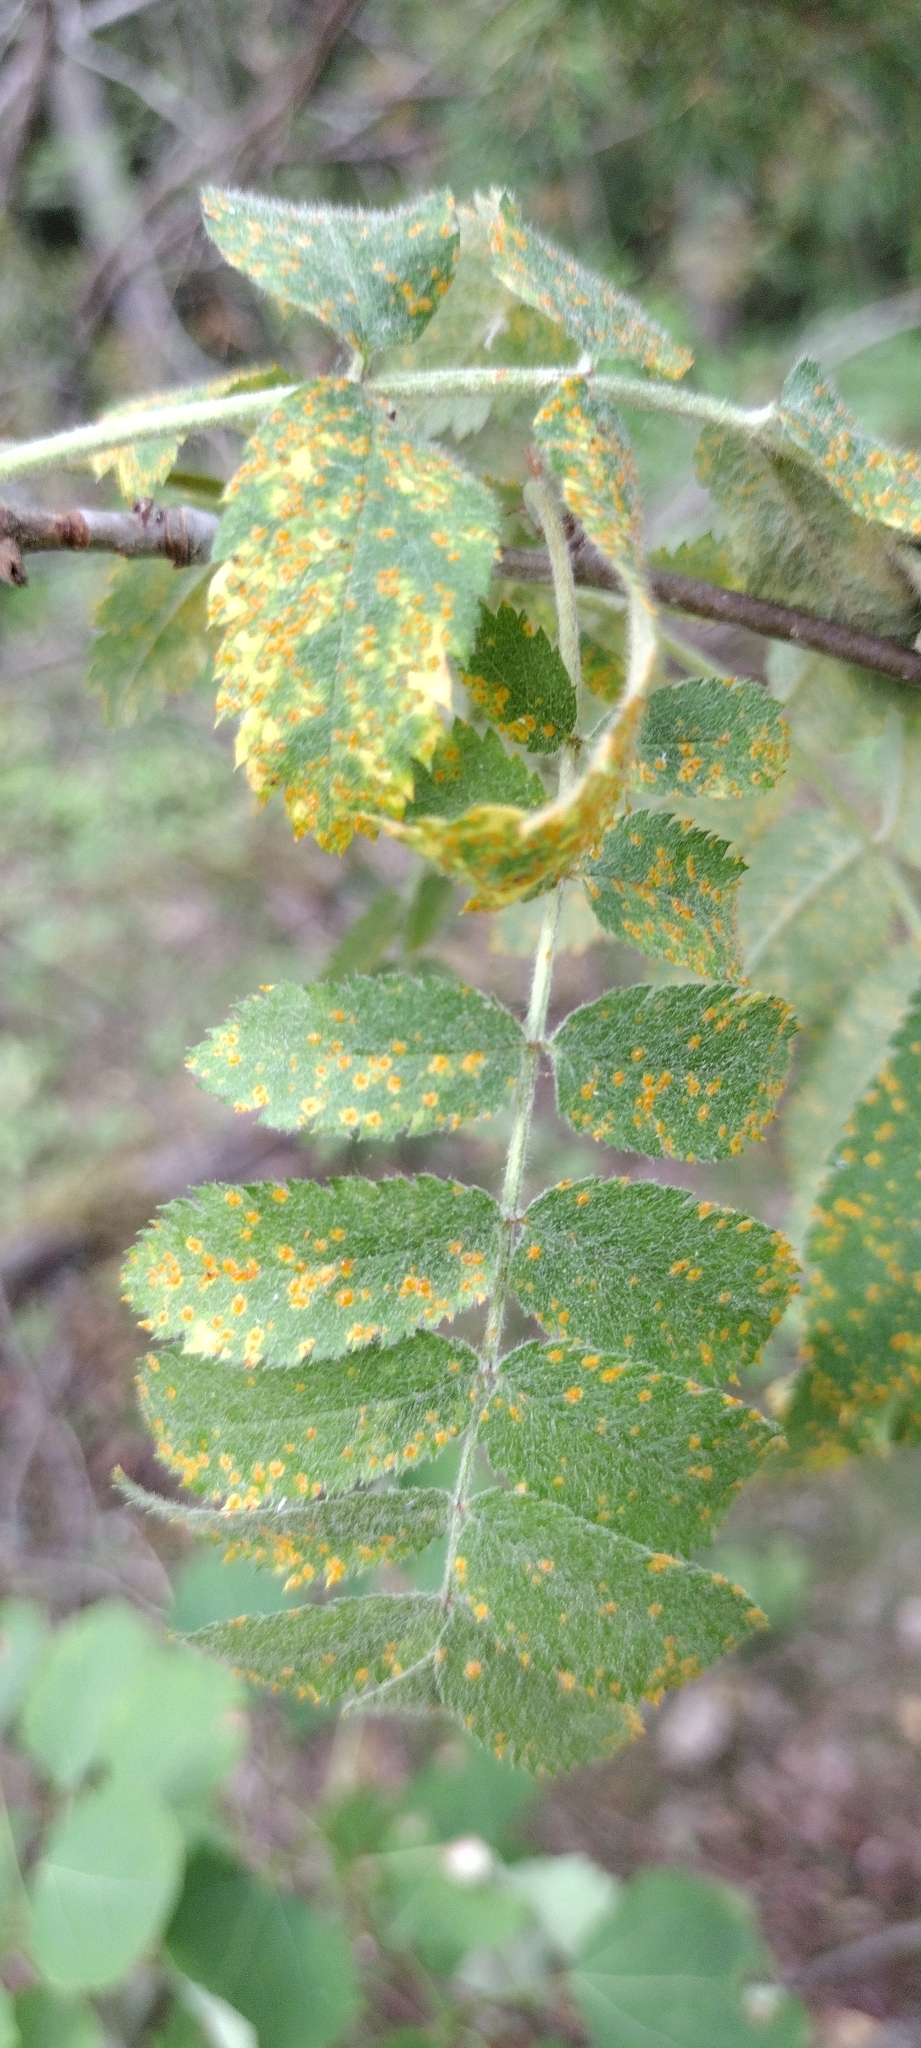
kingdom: Fungi
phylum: Basidiomycota
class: Pucciniomycetes
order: Pucciniales
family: Gymnosporangiaceae
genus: Gymnosporangium
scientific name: Gymnosporangium cornutum
